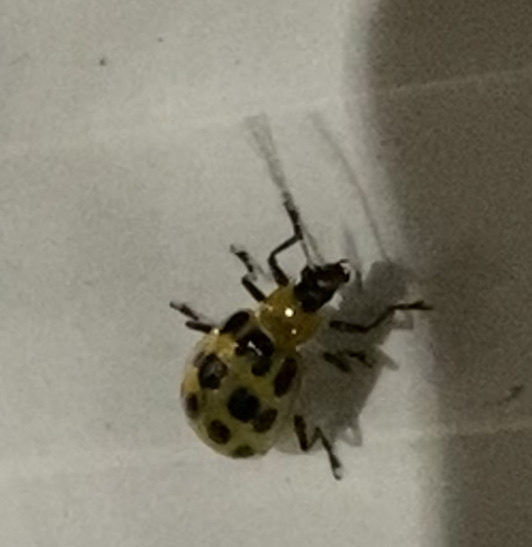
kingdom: Animalia
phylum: Arthropoda
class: Insecta
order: Coleoptera
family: Chrysomelidae
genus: Diabrotica
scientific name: Diabrotica undecimpunctata
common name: Spotted cucumber beetle
